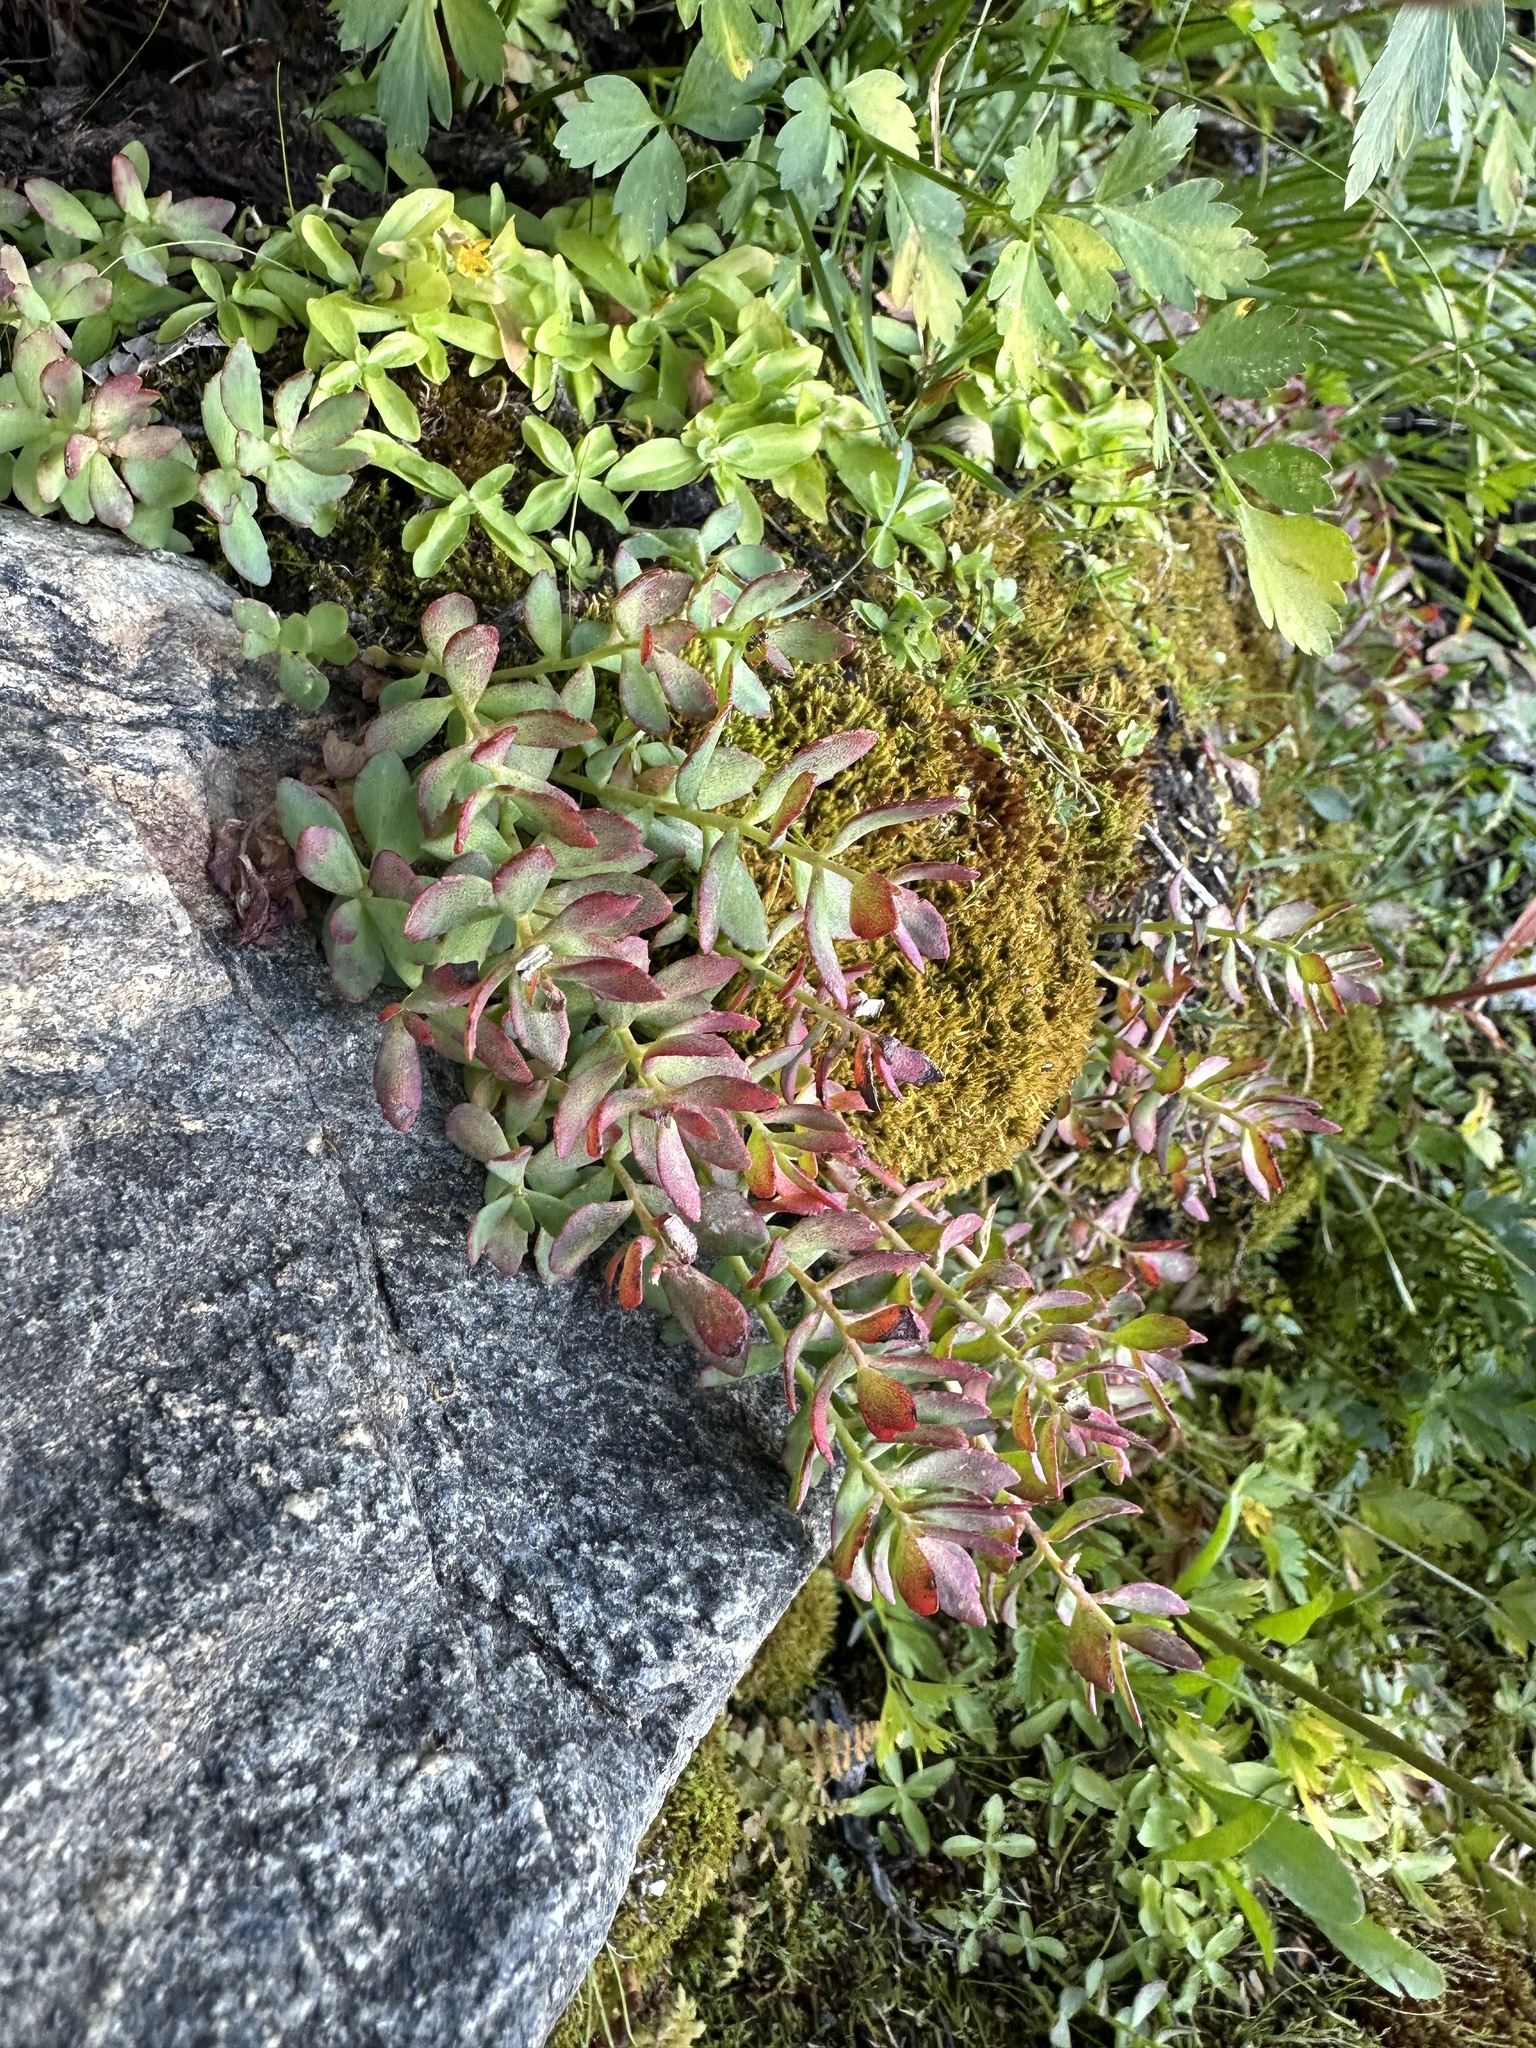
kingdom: Plantae
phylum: Tracheophyta
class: Magnoliopsida
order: Saxifragales
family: Crassulaceae
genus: Rhodiola
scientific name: Rhodiola integrifolia
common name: Western roseroot
